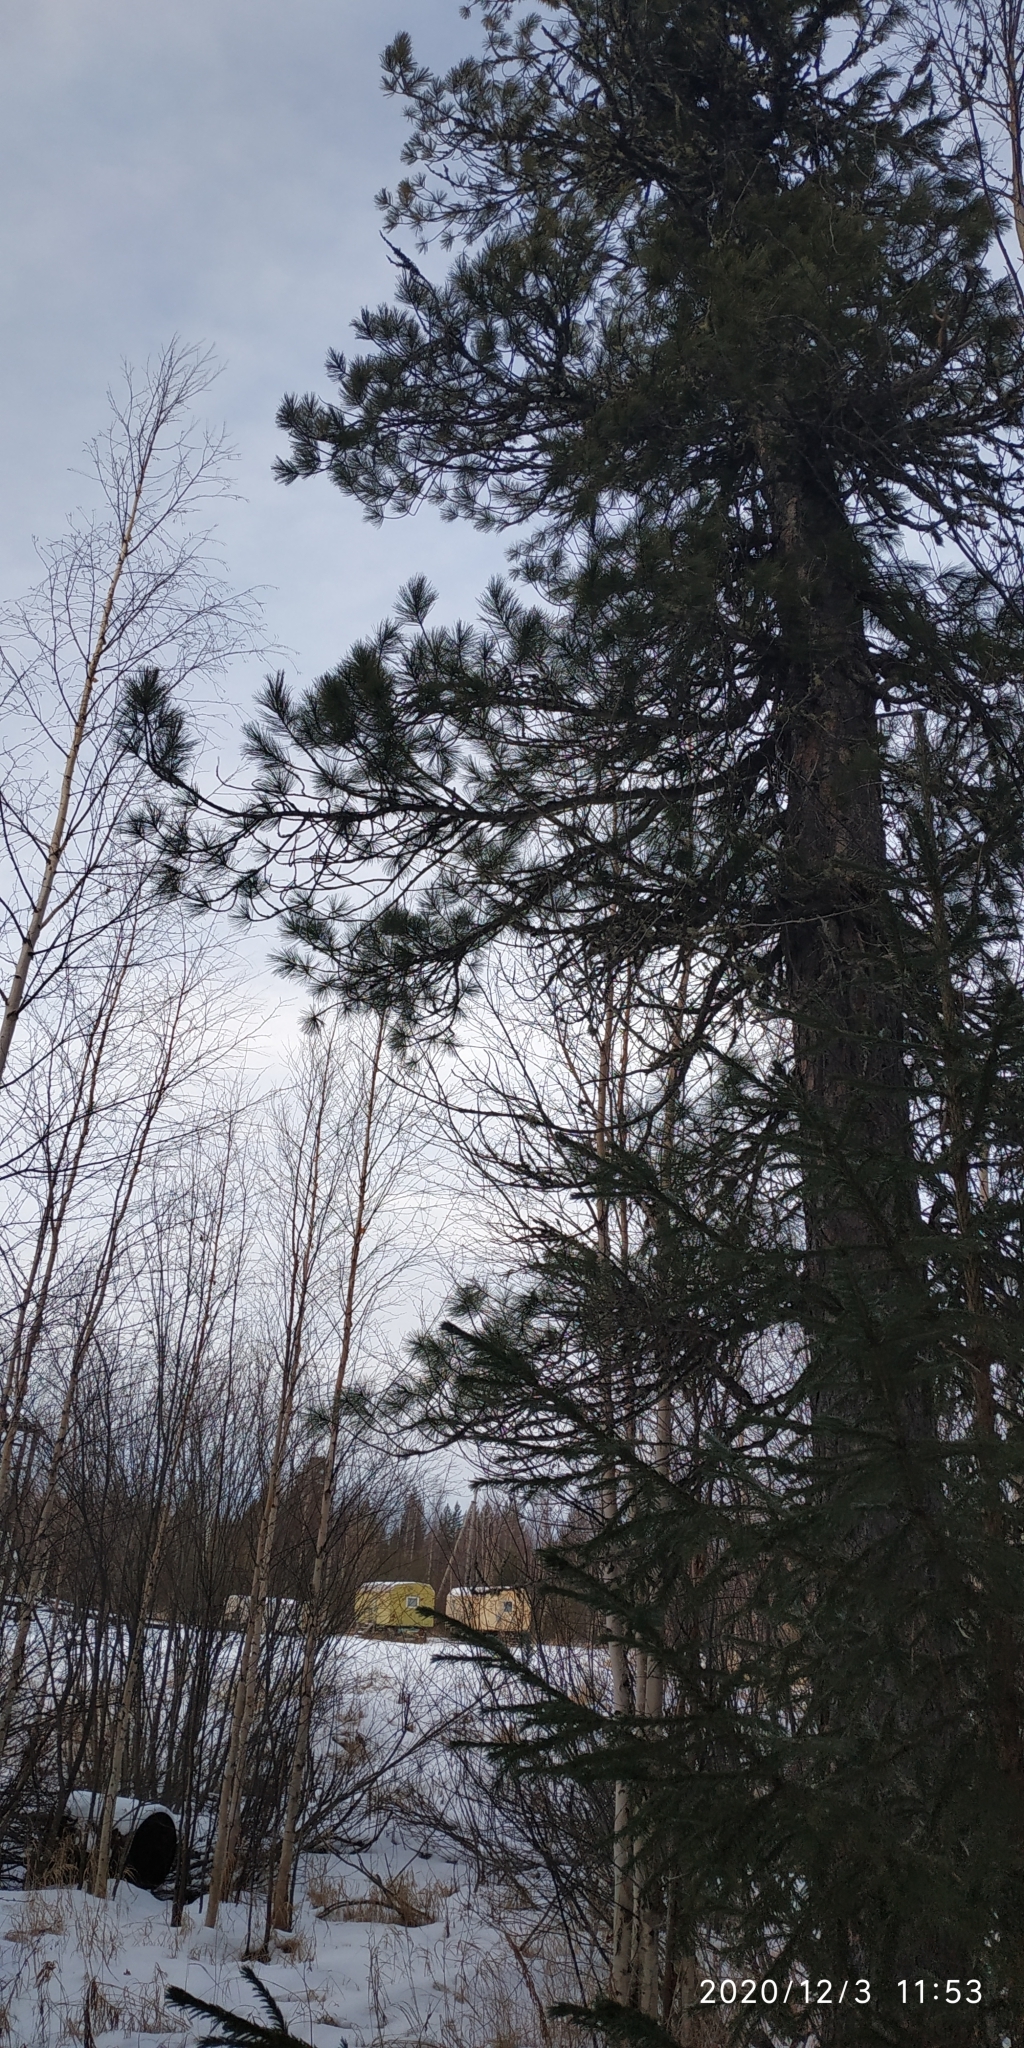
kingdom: Plantae
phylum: Tracheophyta
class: Pinopsida
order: Pinales
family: Pinaceae
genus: Pinus
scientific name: Pinus sibirica
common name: Siberian pine
